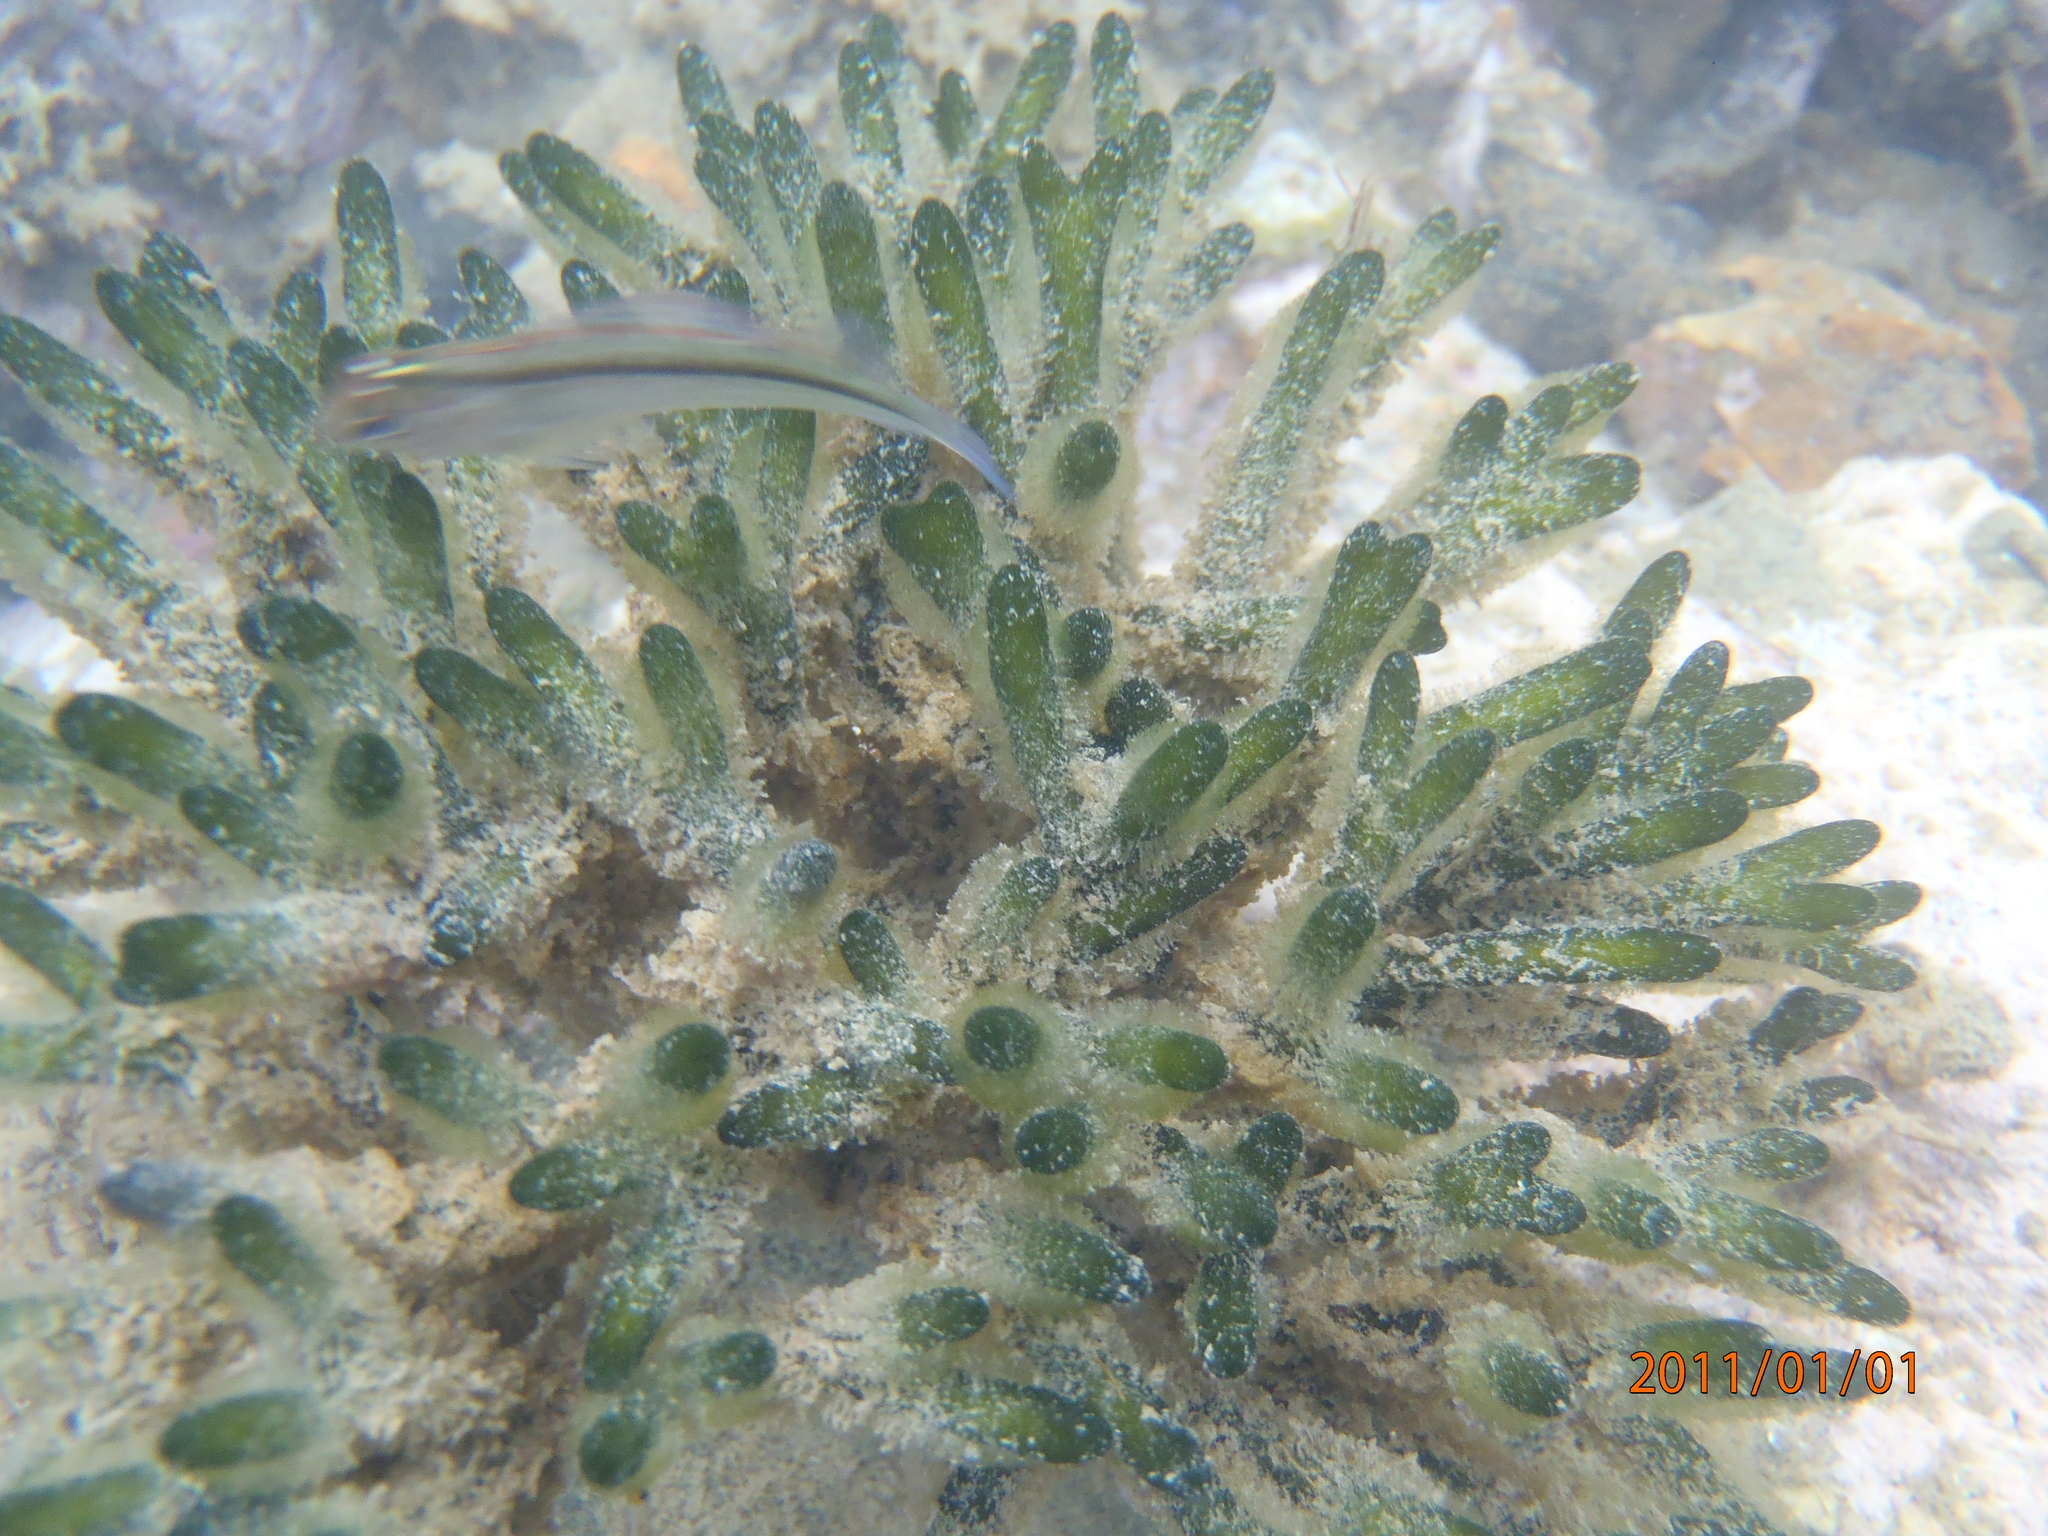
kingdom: Plantae
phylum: Chlorophyta
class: Ulvophyceae
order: Bryopsidales
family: Codiaceae
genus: Codium
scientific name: Codium fragile
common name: Dead man's fingers
